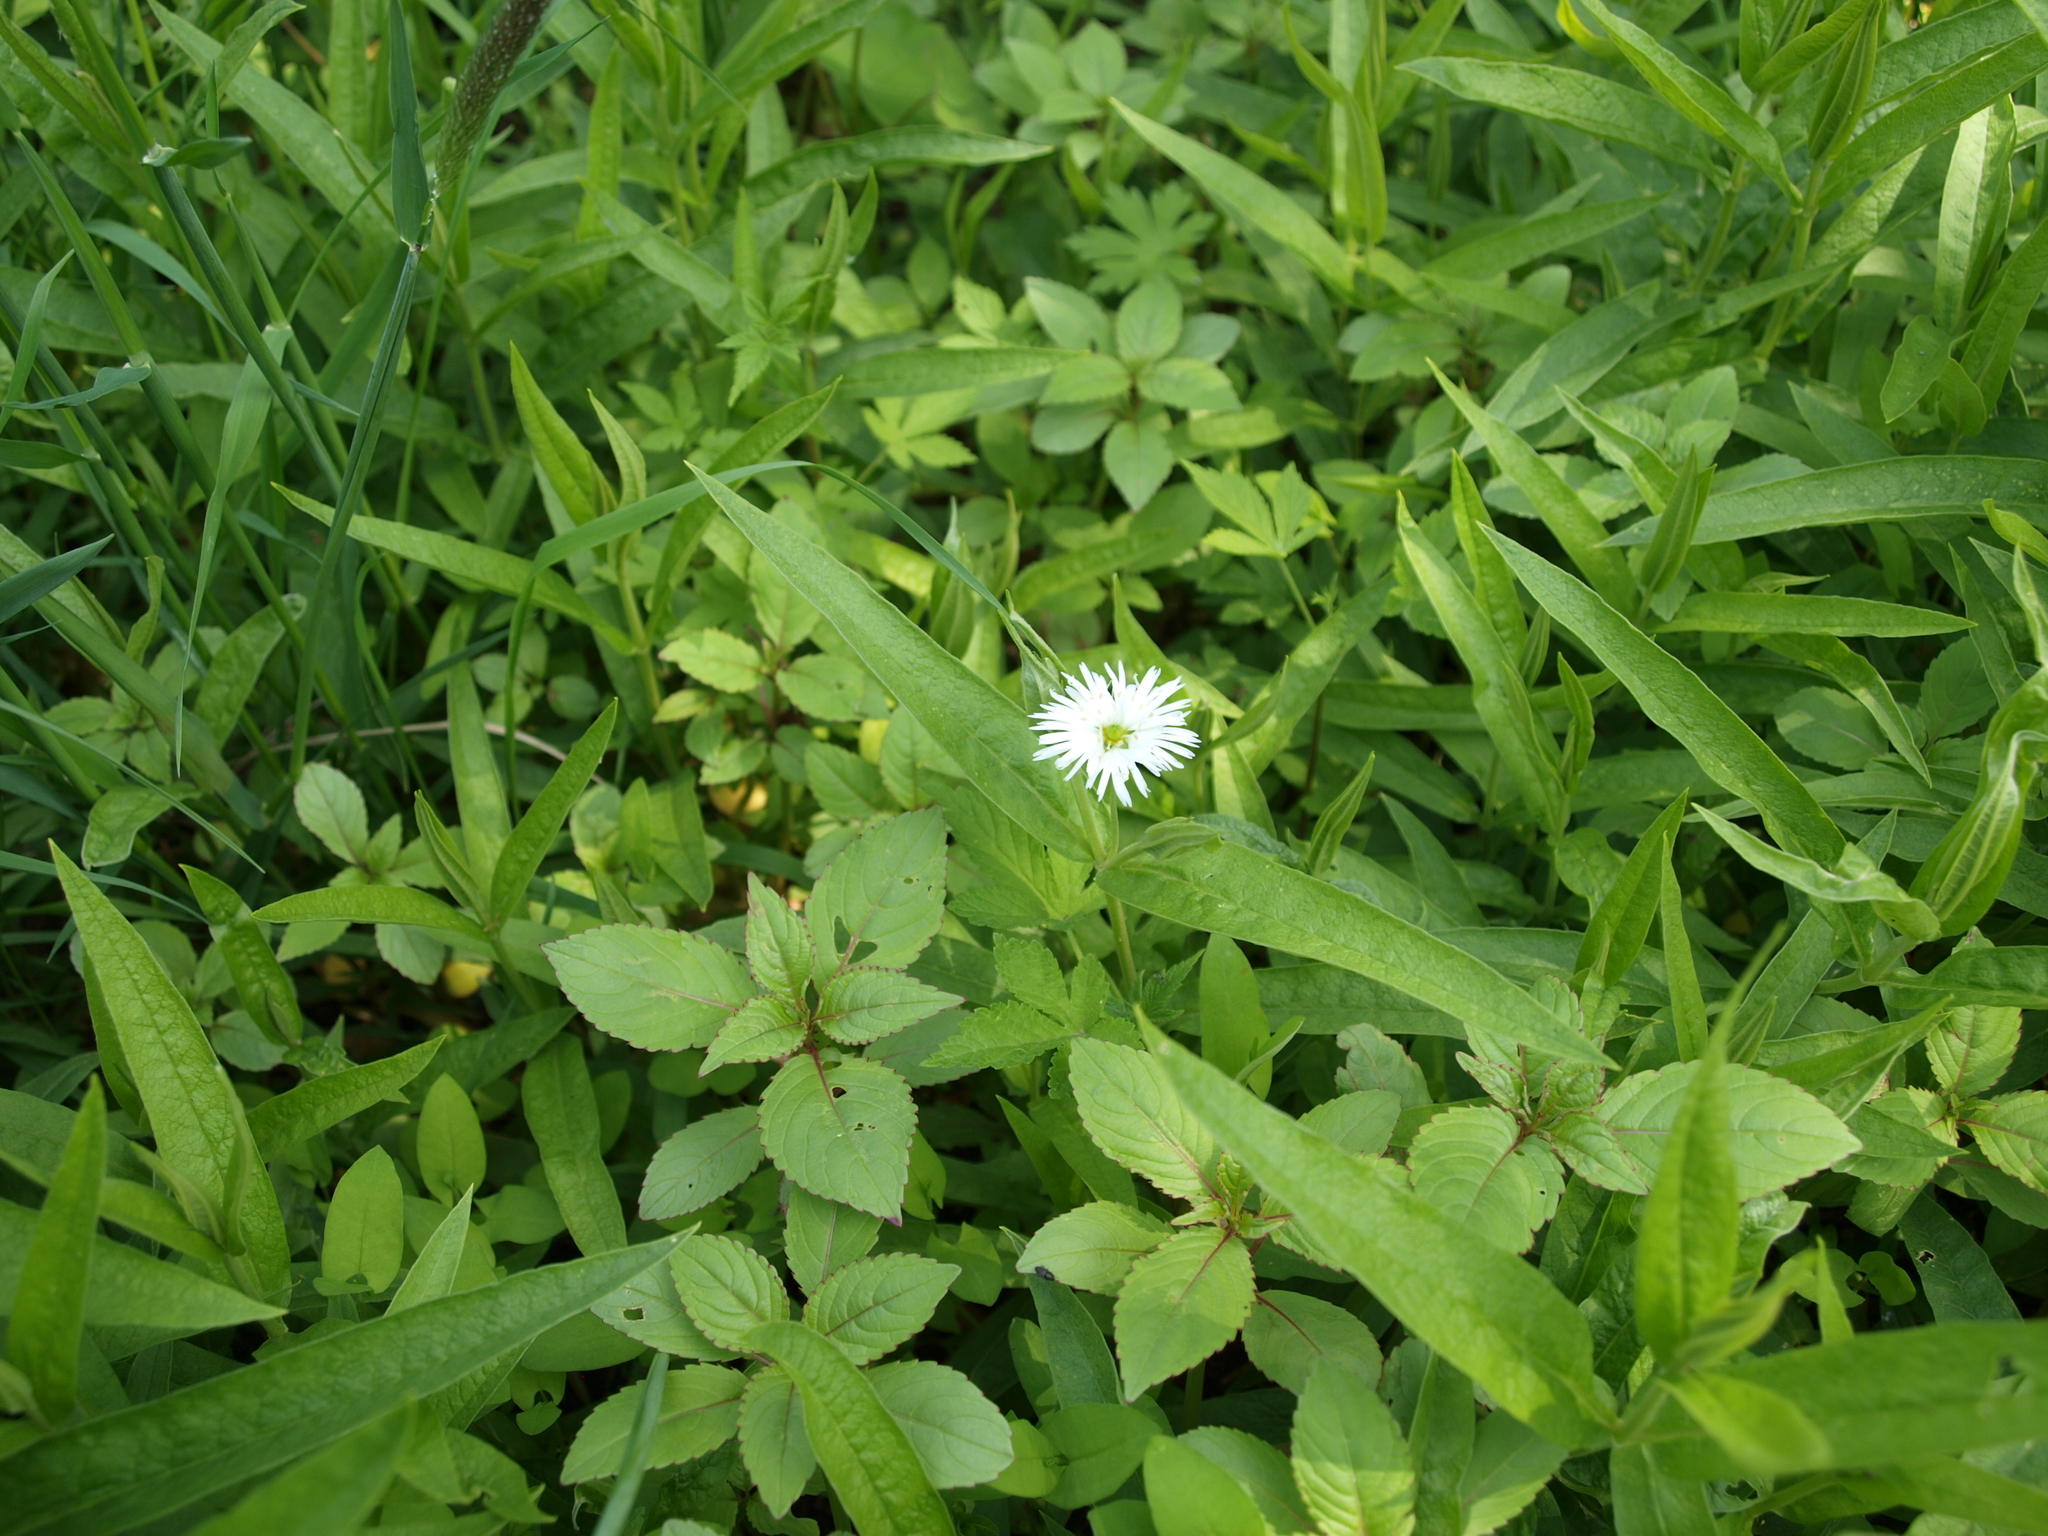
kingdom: Plantae
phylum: Tracheophyta
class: Magnoliopsida
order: Caryophyllales
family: Caryophyllaceae
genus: Stellaria
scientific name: Stellaria radians
